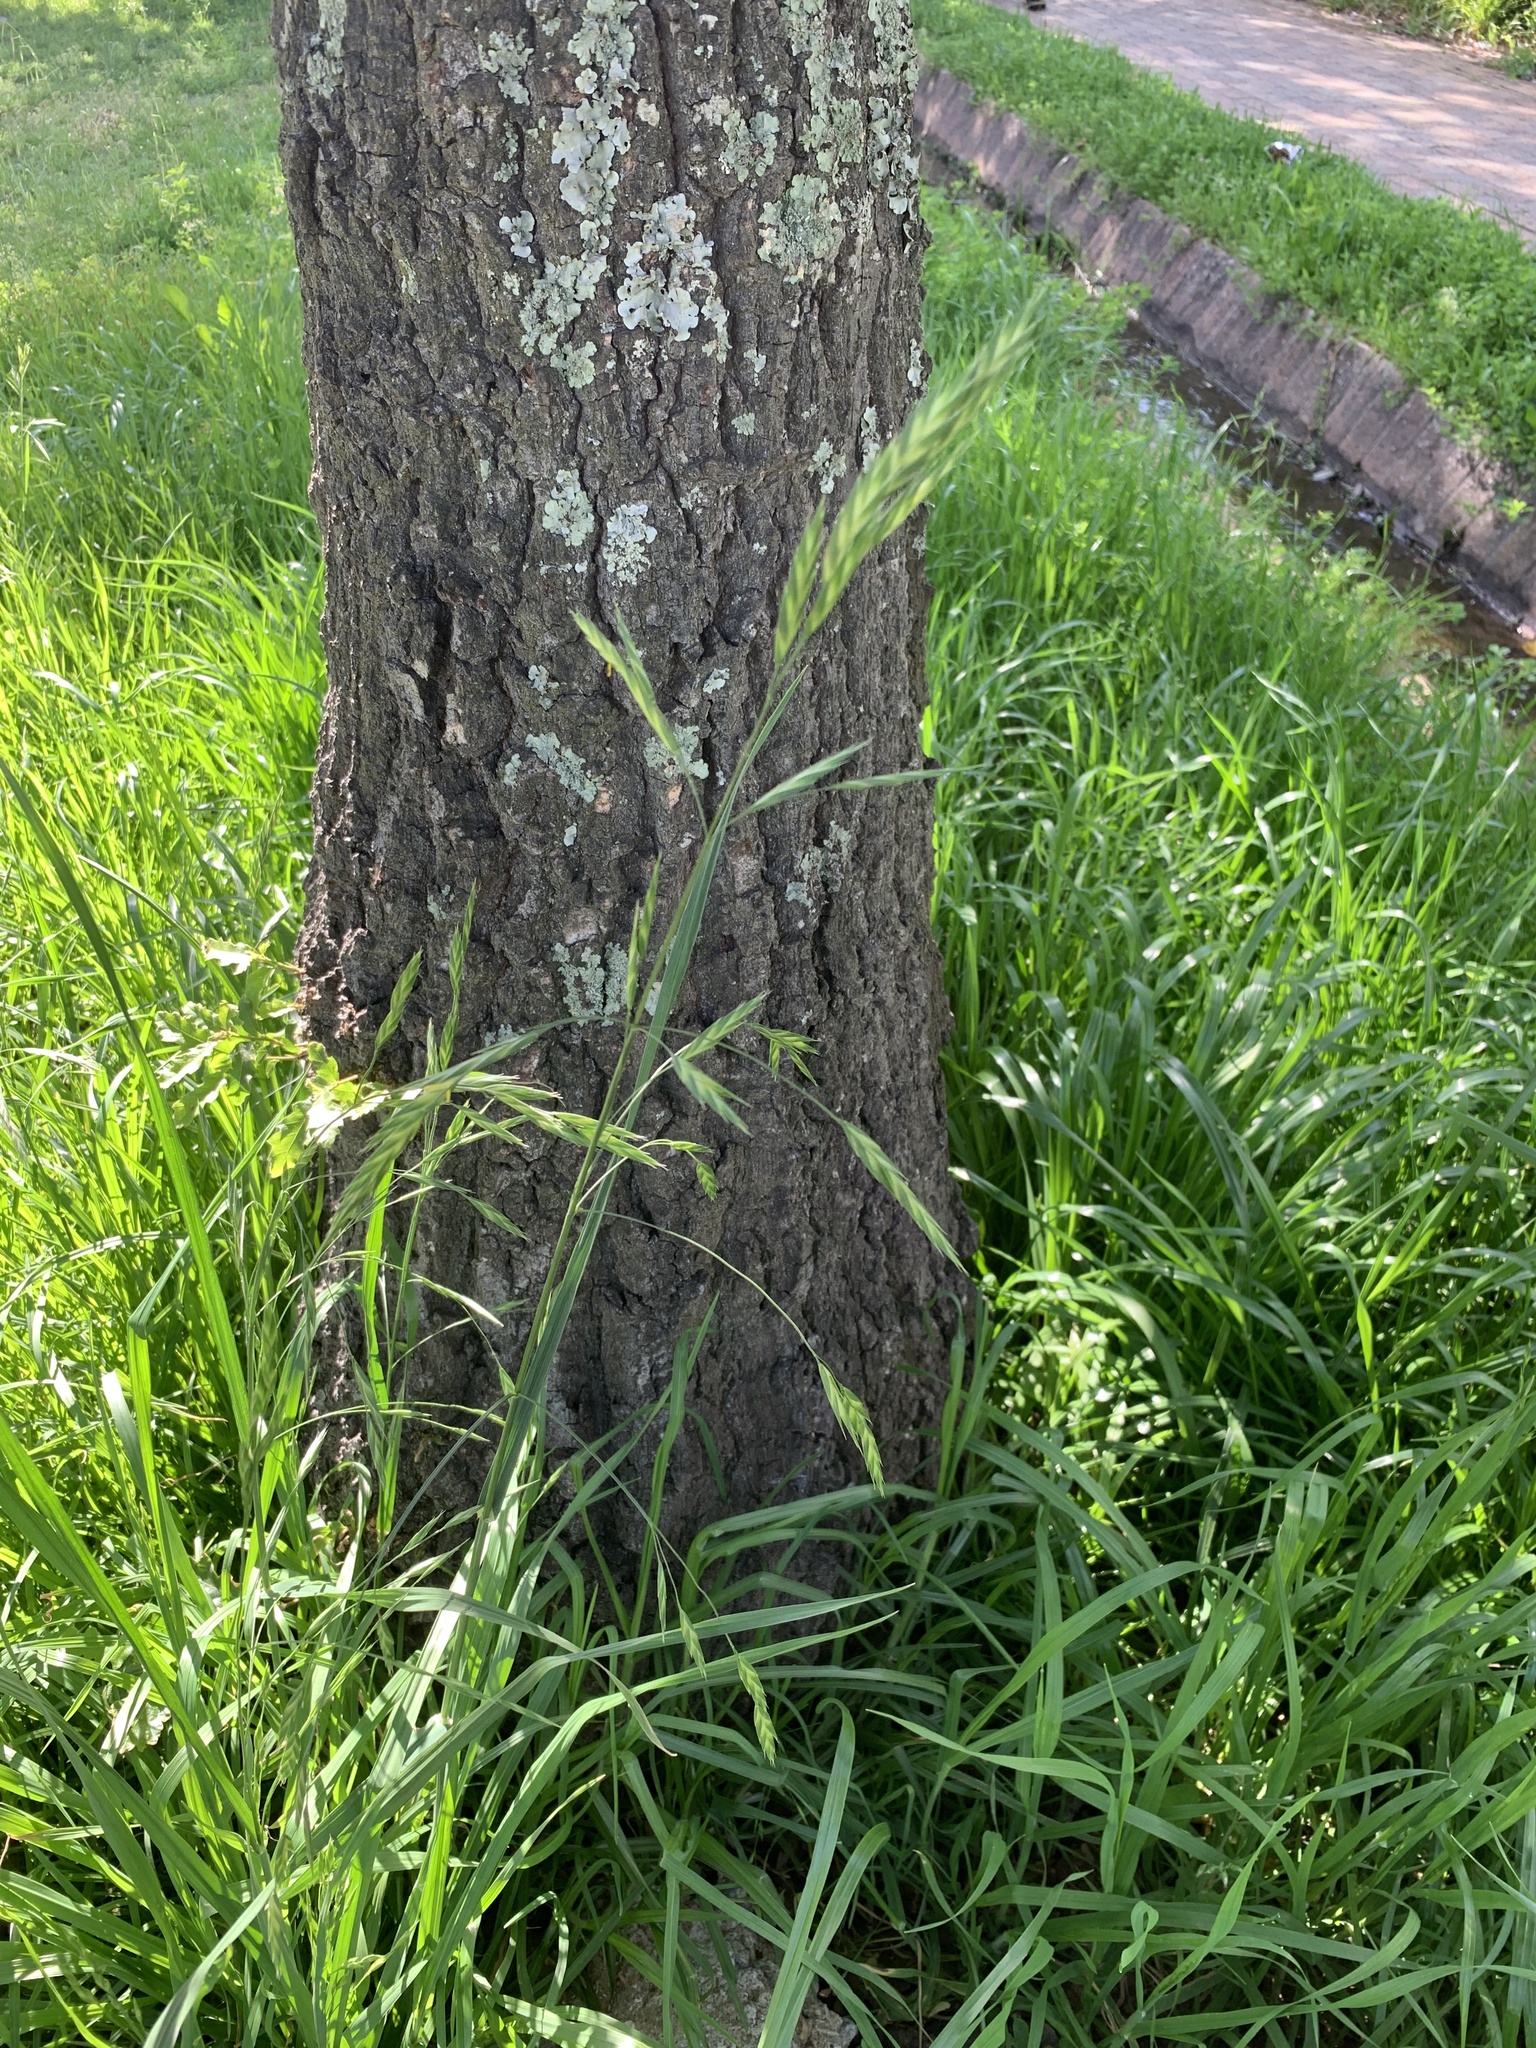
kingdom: Plantae
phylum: Tracheophyta
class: Liliopsida
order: Poales
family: Poaceae
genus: Bromus
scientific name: Bromus catharticus
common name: Rescuegrass
